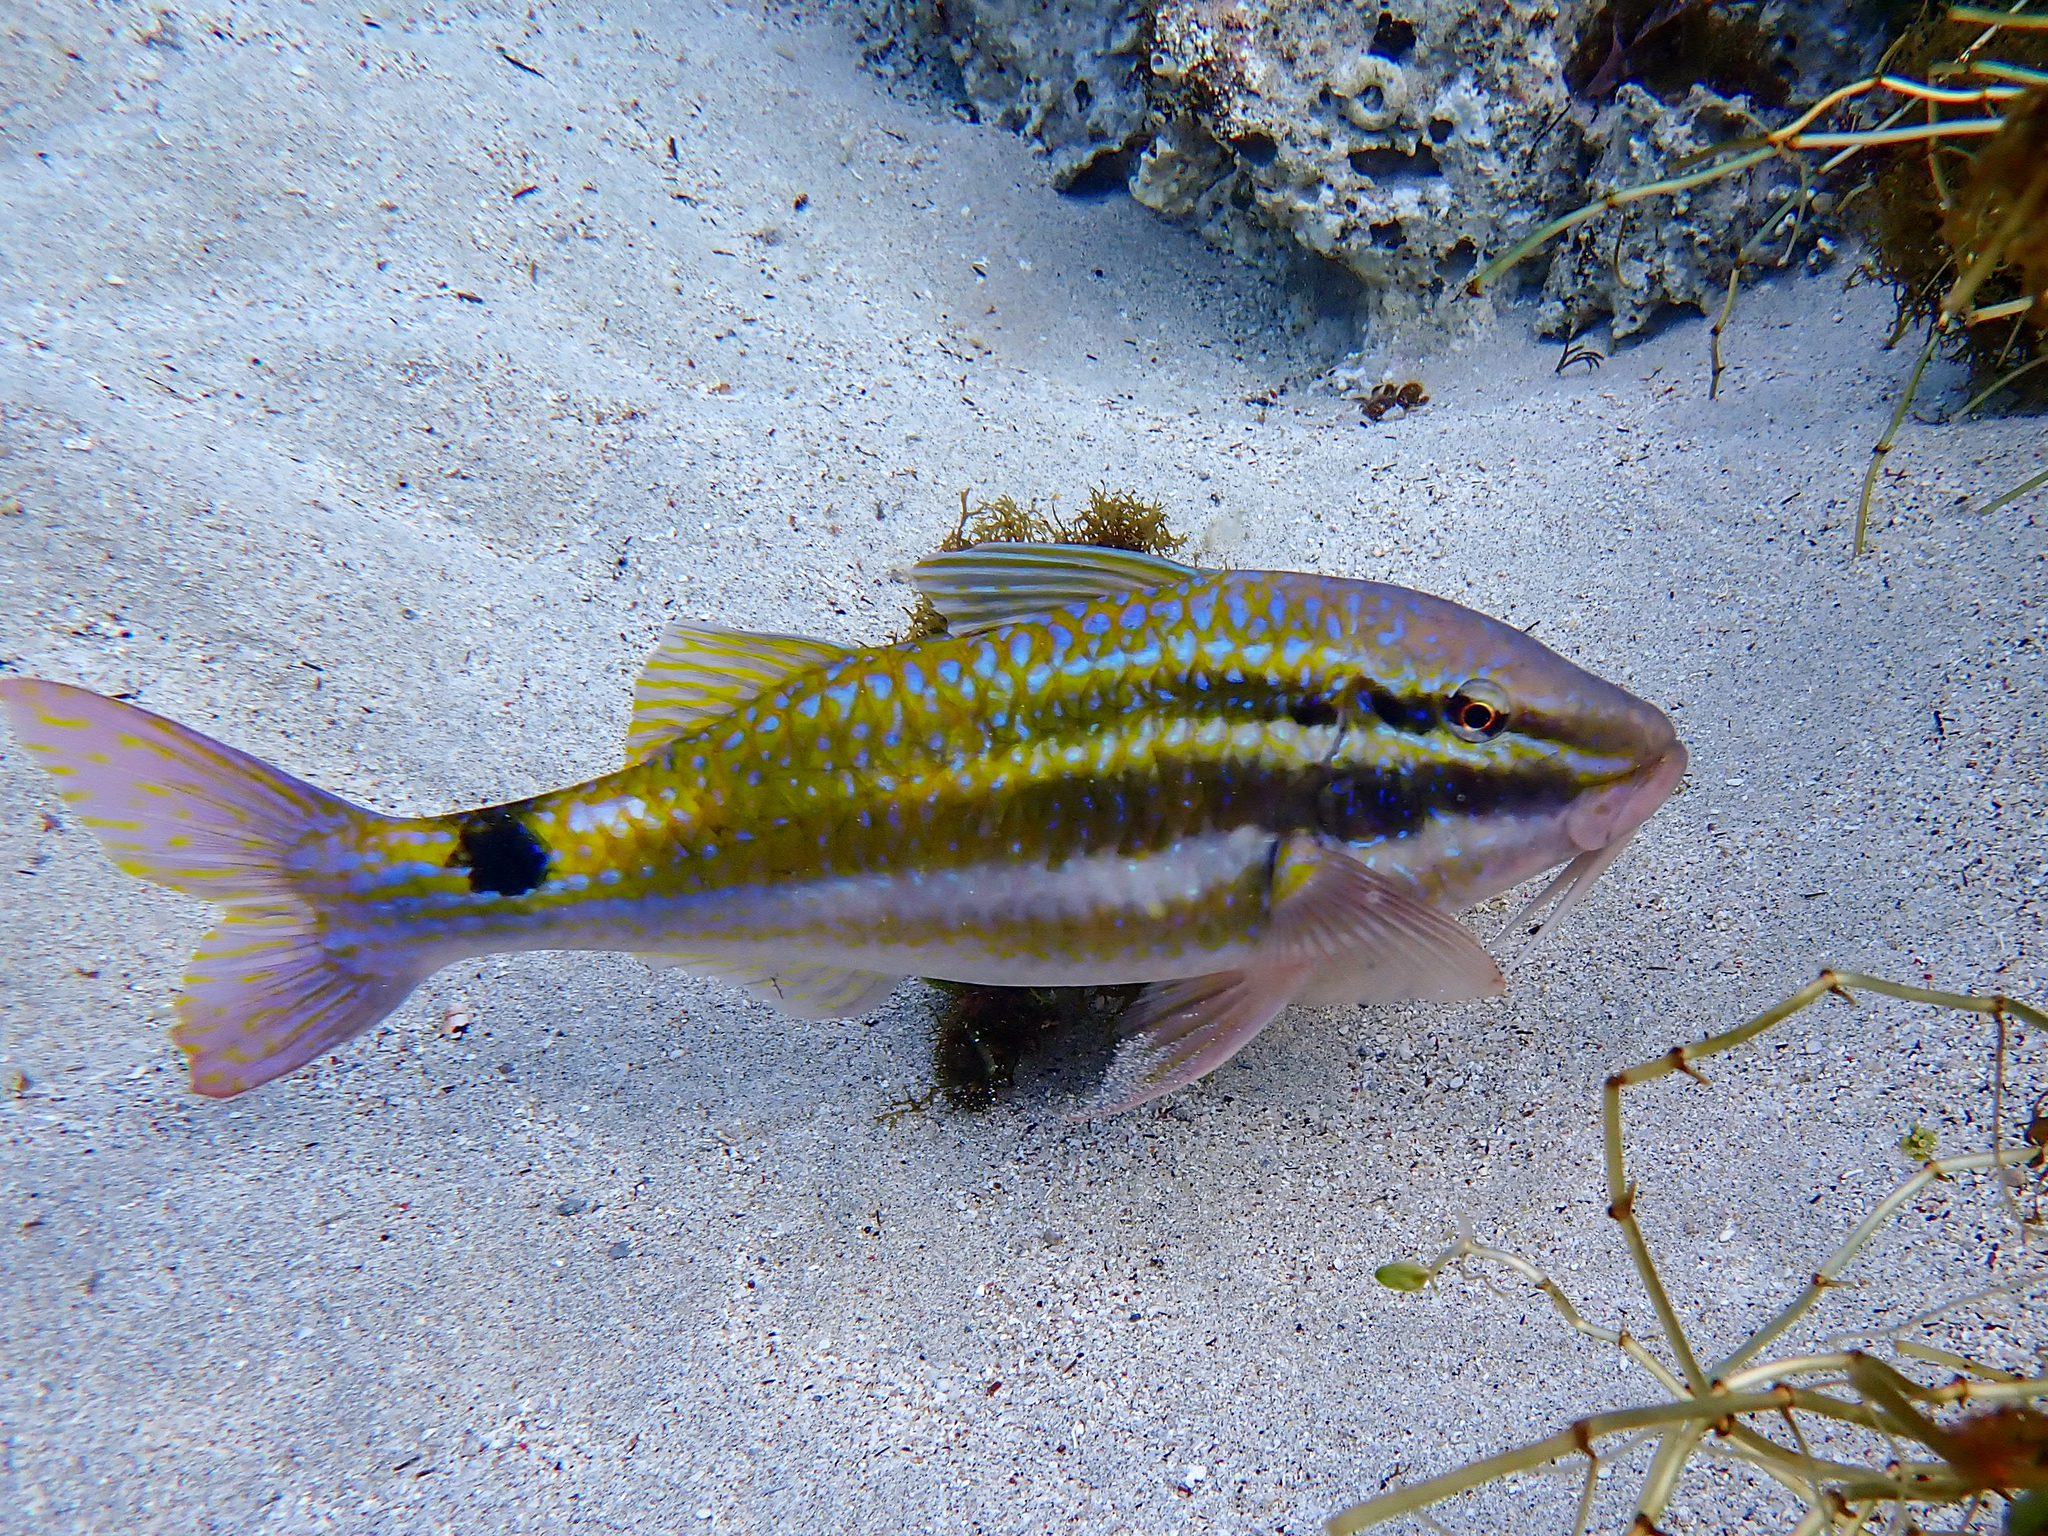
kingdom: Animalia
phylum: Chordata
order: Perciformes
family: Mullidae
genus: Parupeneus
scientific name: Parupeneus spilurus
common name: Blackspot goatfish
